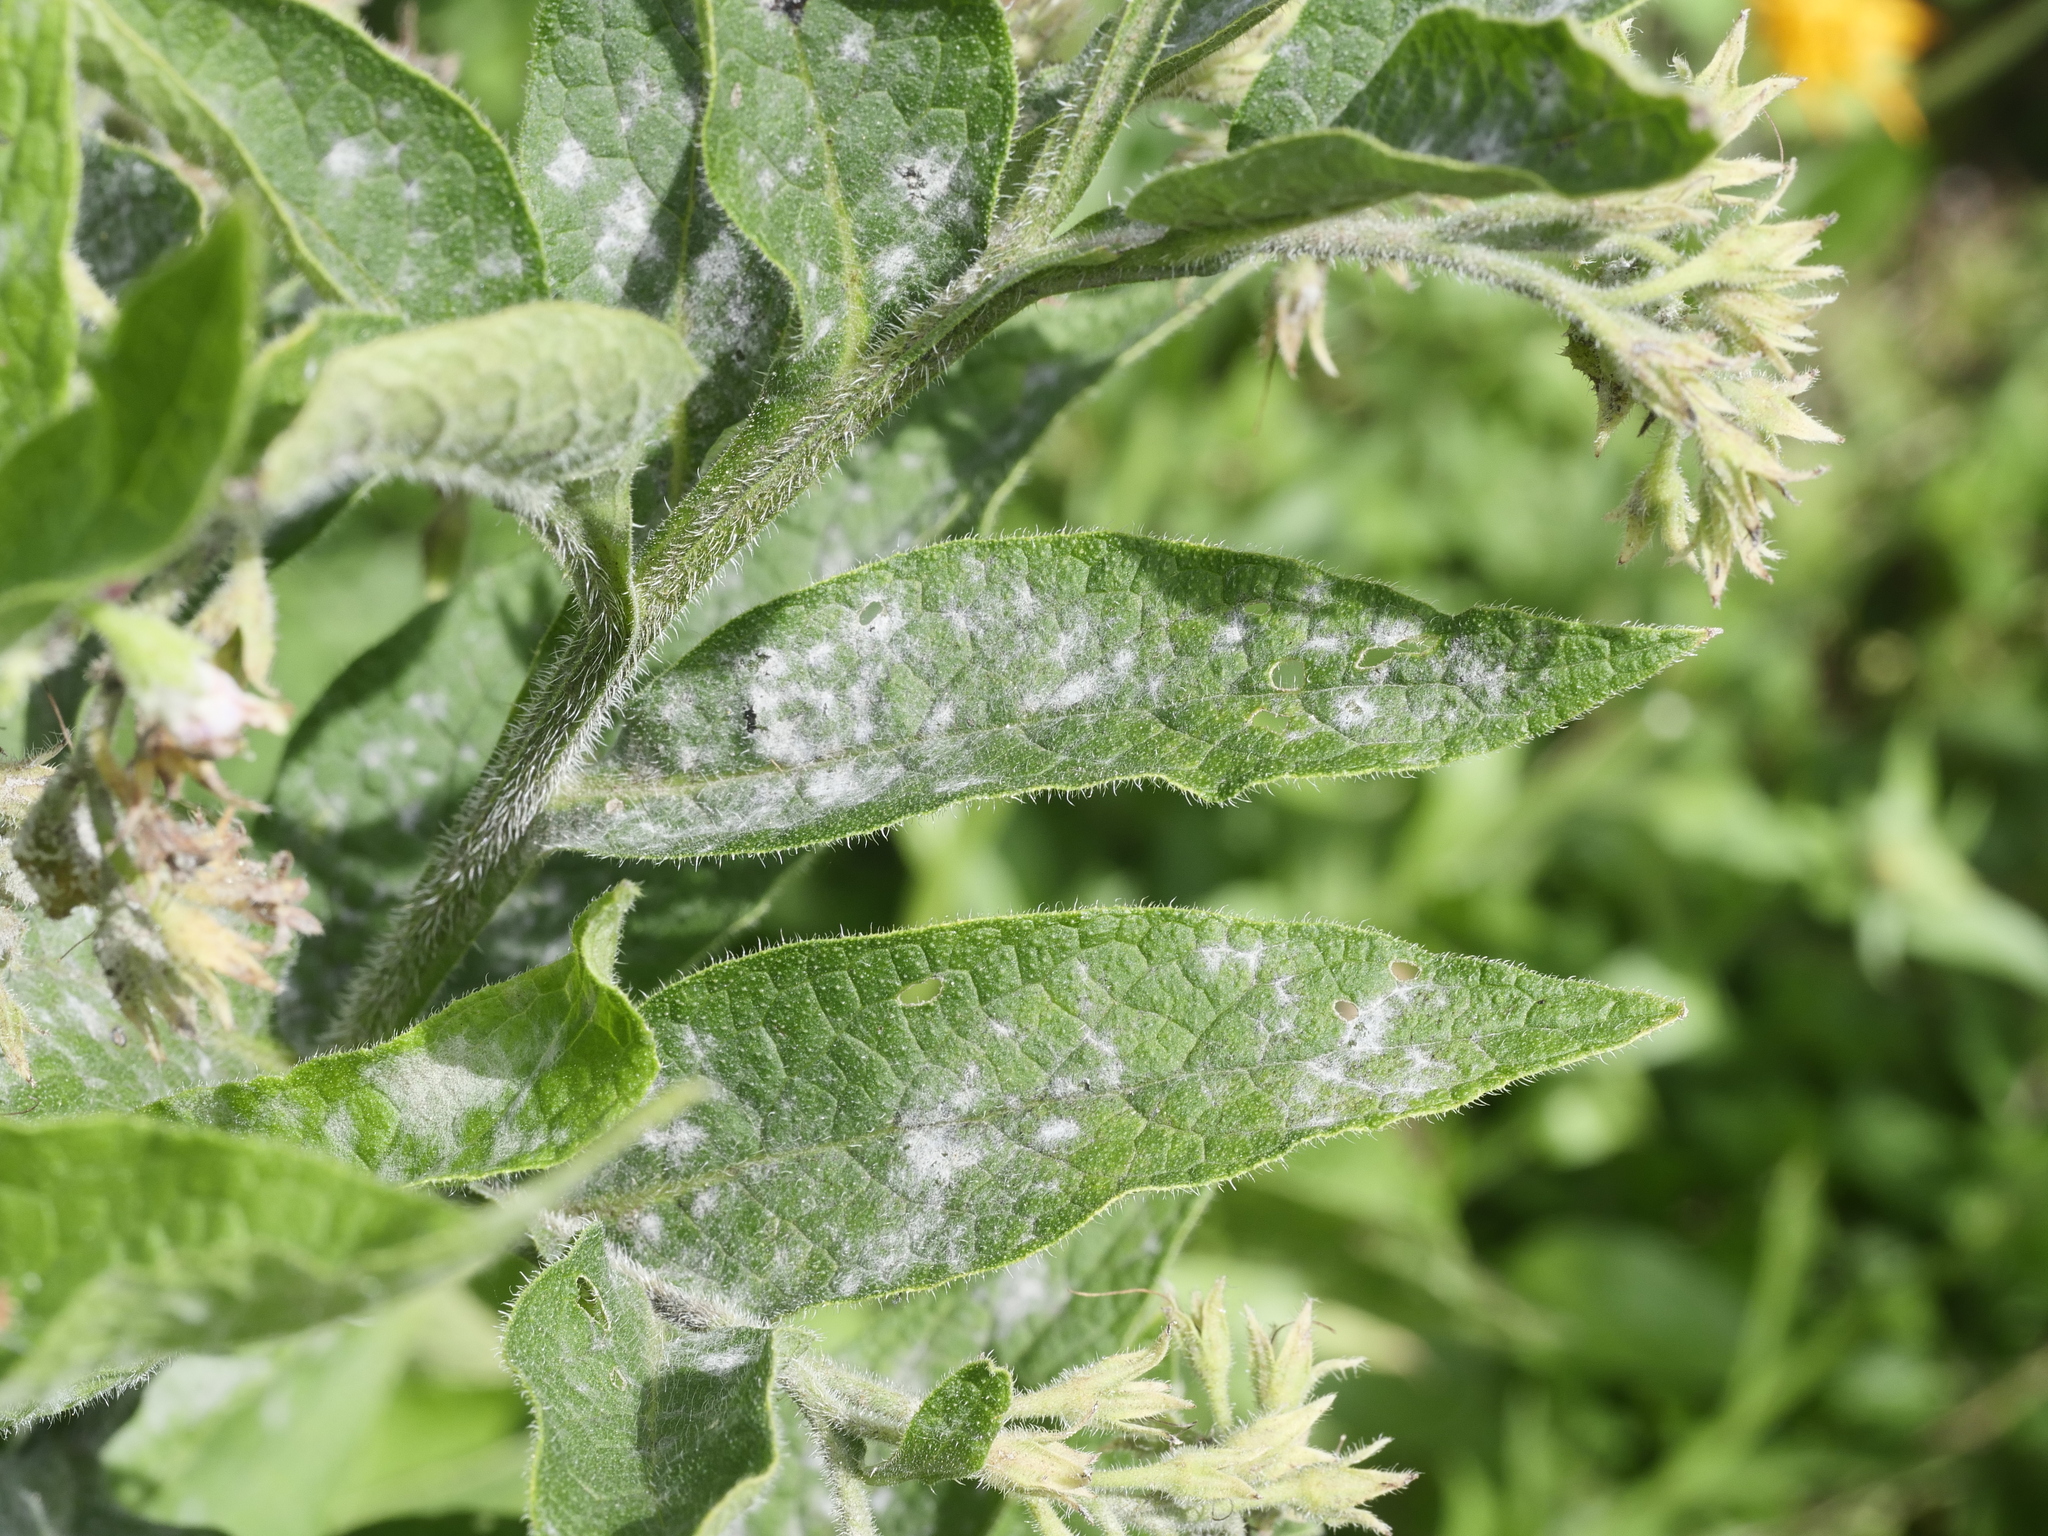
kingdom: Fungi
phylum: Ascomycota
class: Leotiomycetes
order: Helotiales
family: Erysiphaceae
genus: Golovinomyces
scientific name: Golovinomyces asperifoliorum
